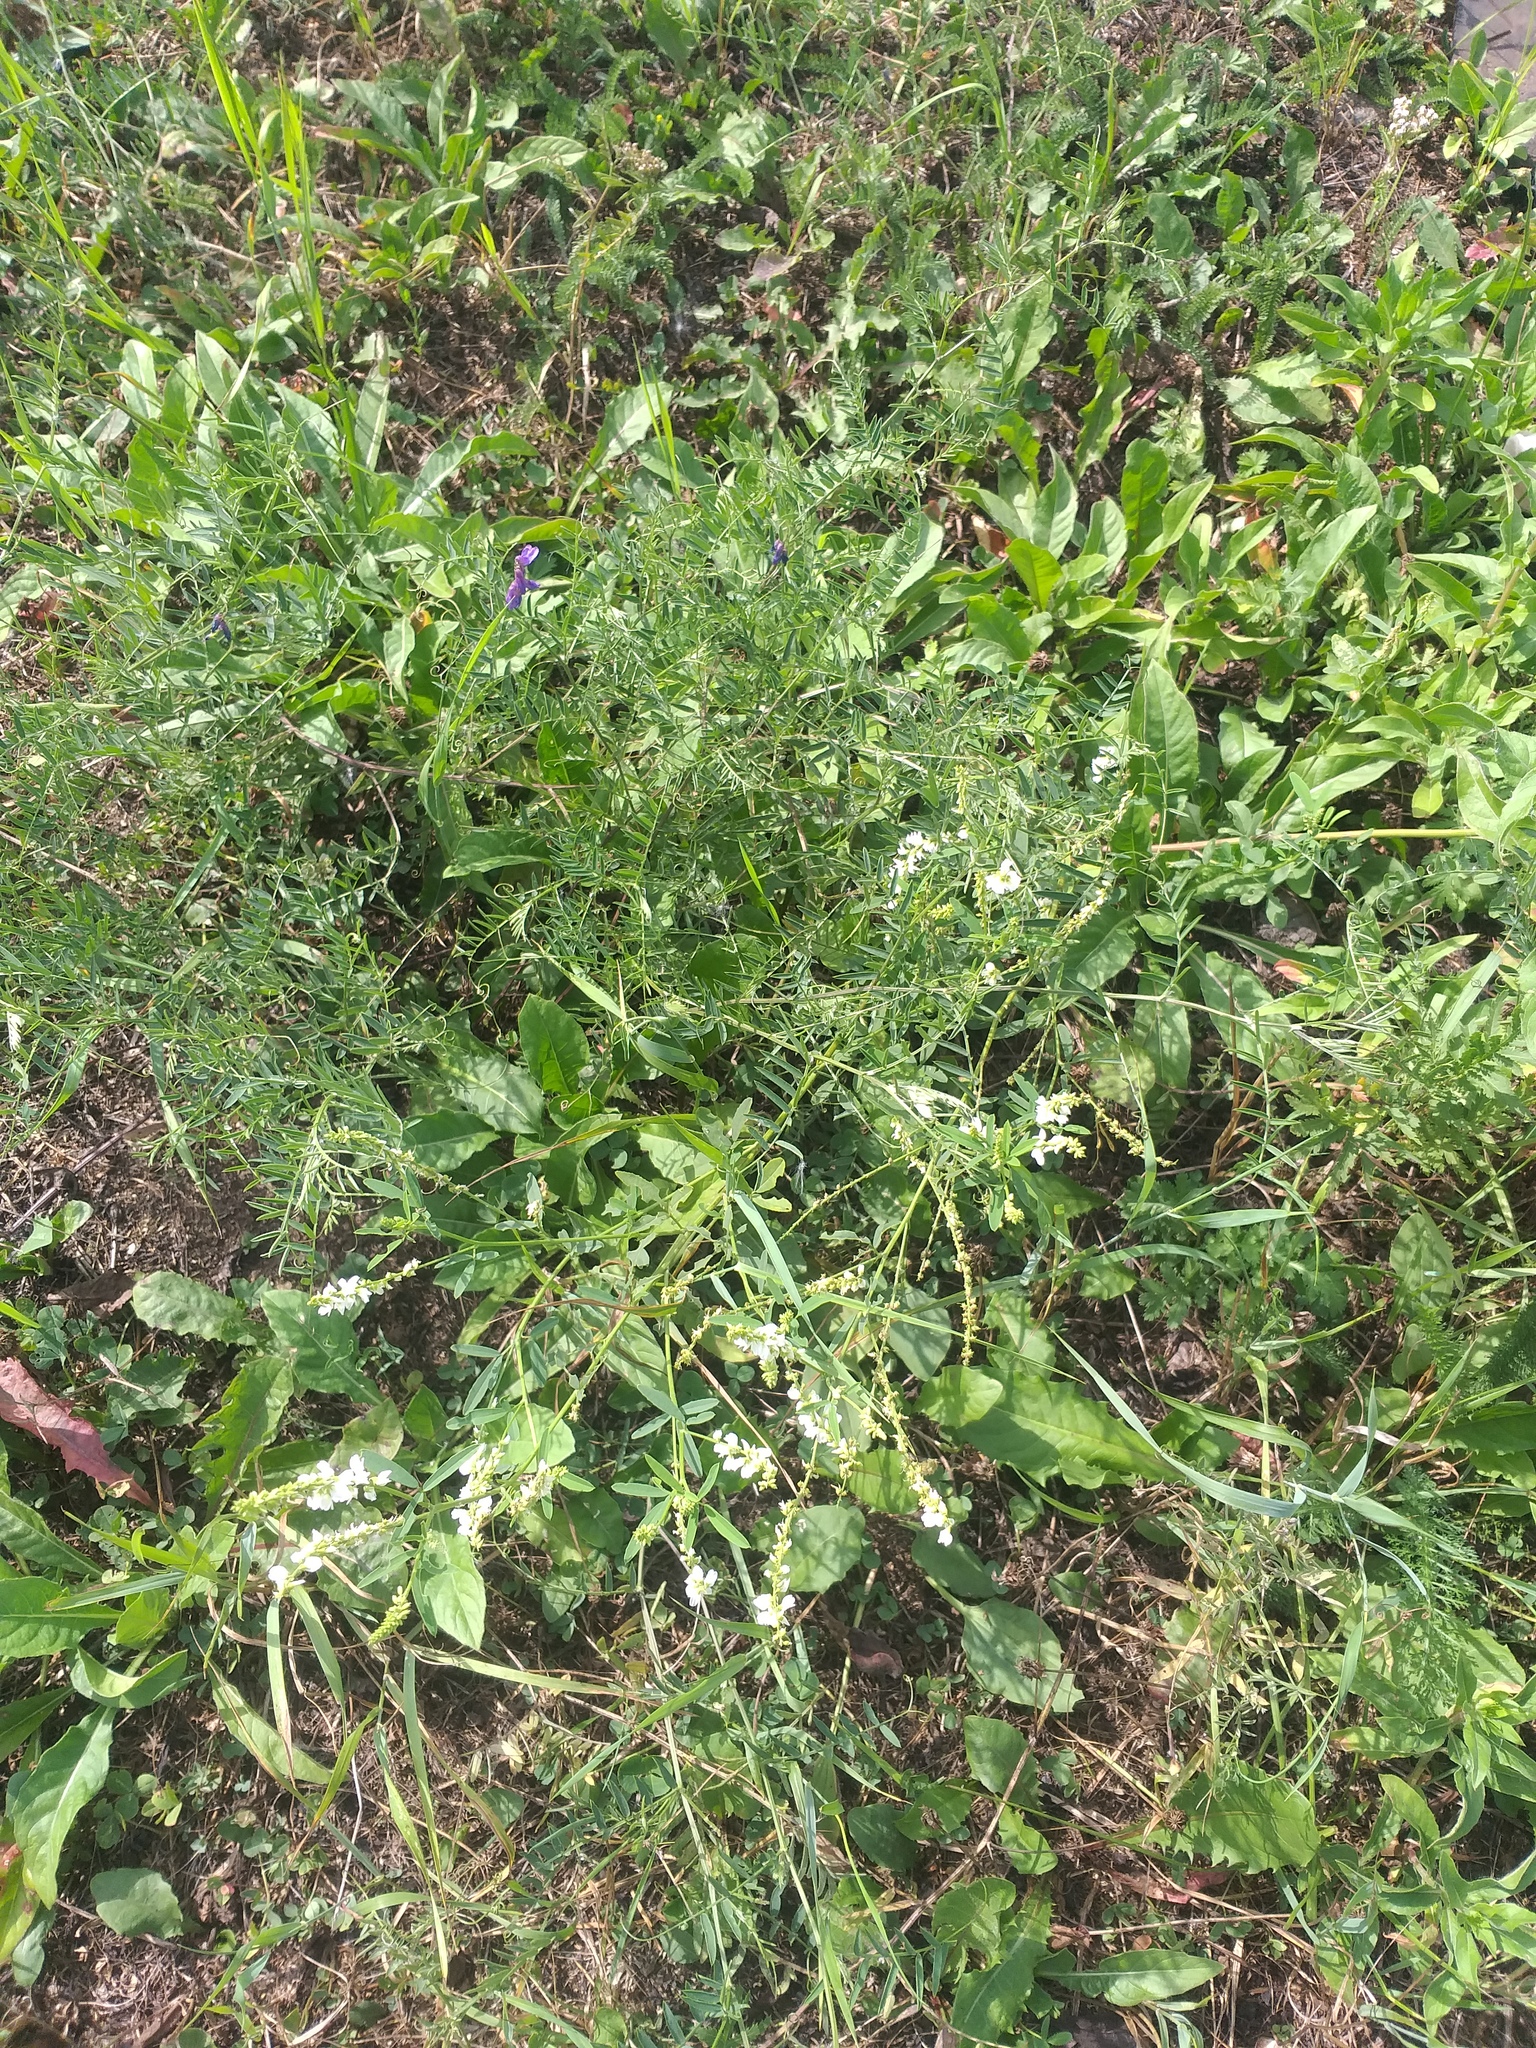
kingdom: Plantae
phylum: Tracheophyta
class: Magnoliopsida
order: Fabales
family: Fabaceae
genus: Vicia
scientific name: Vicia cracca
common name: Bird vetch
